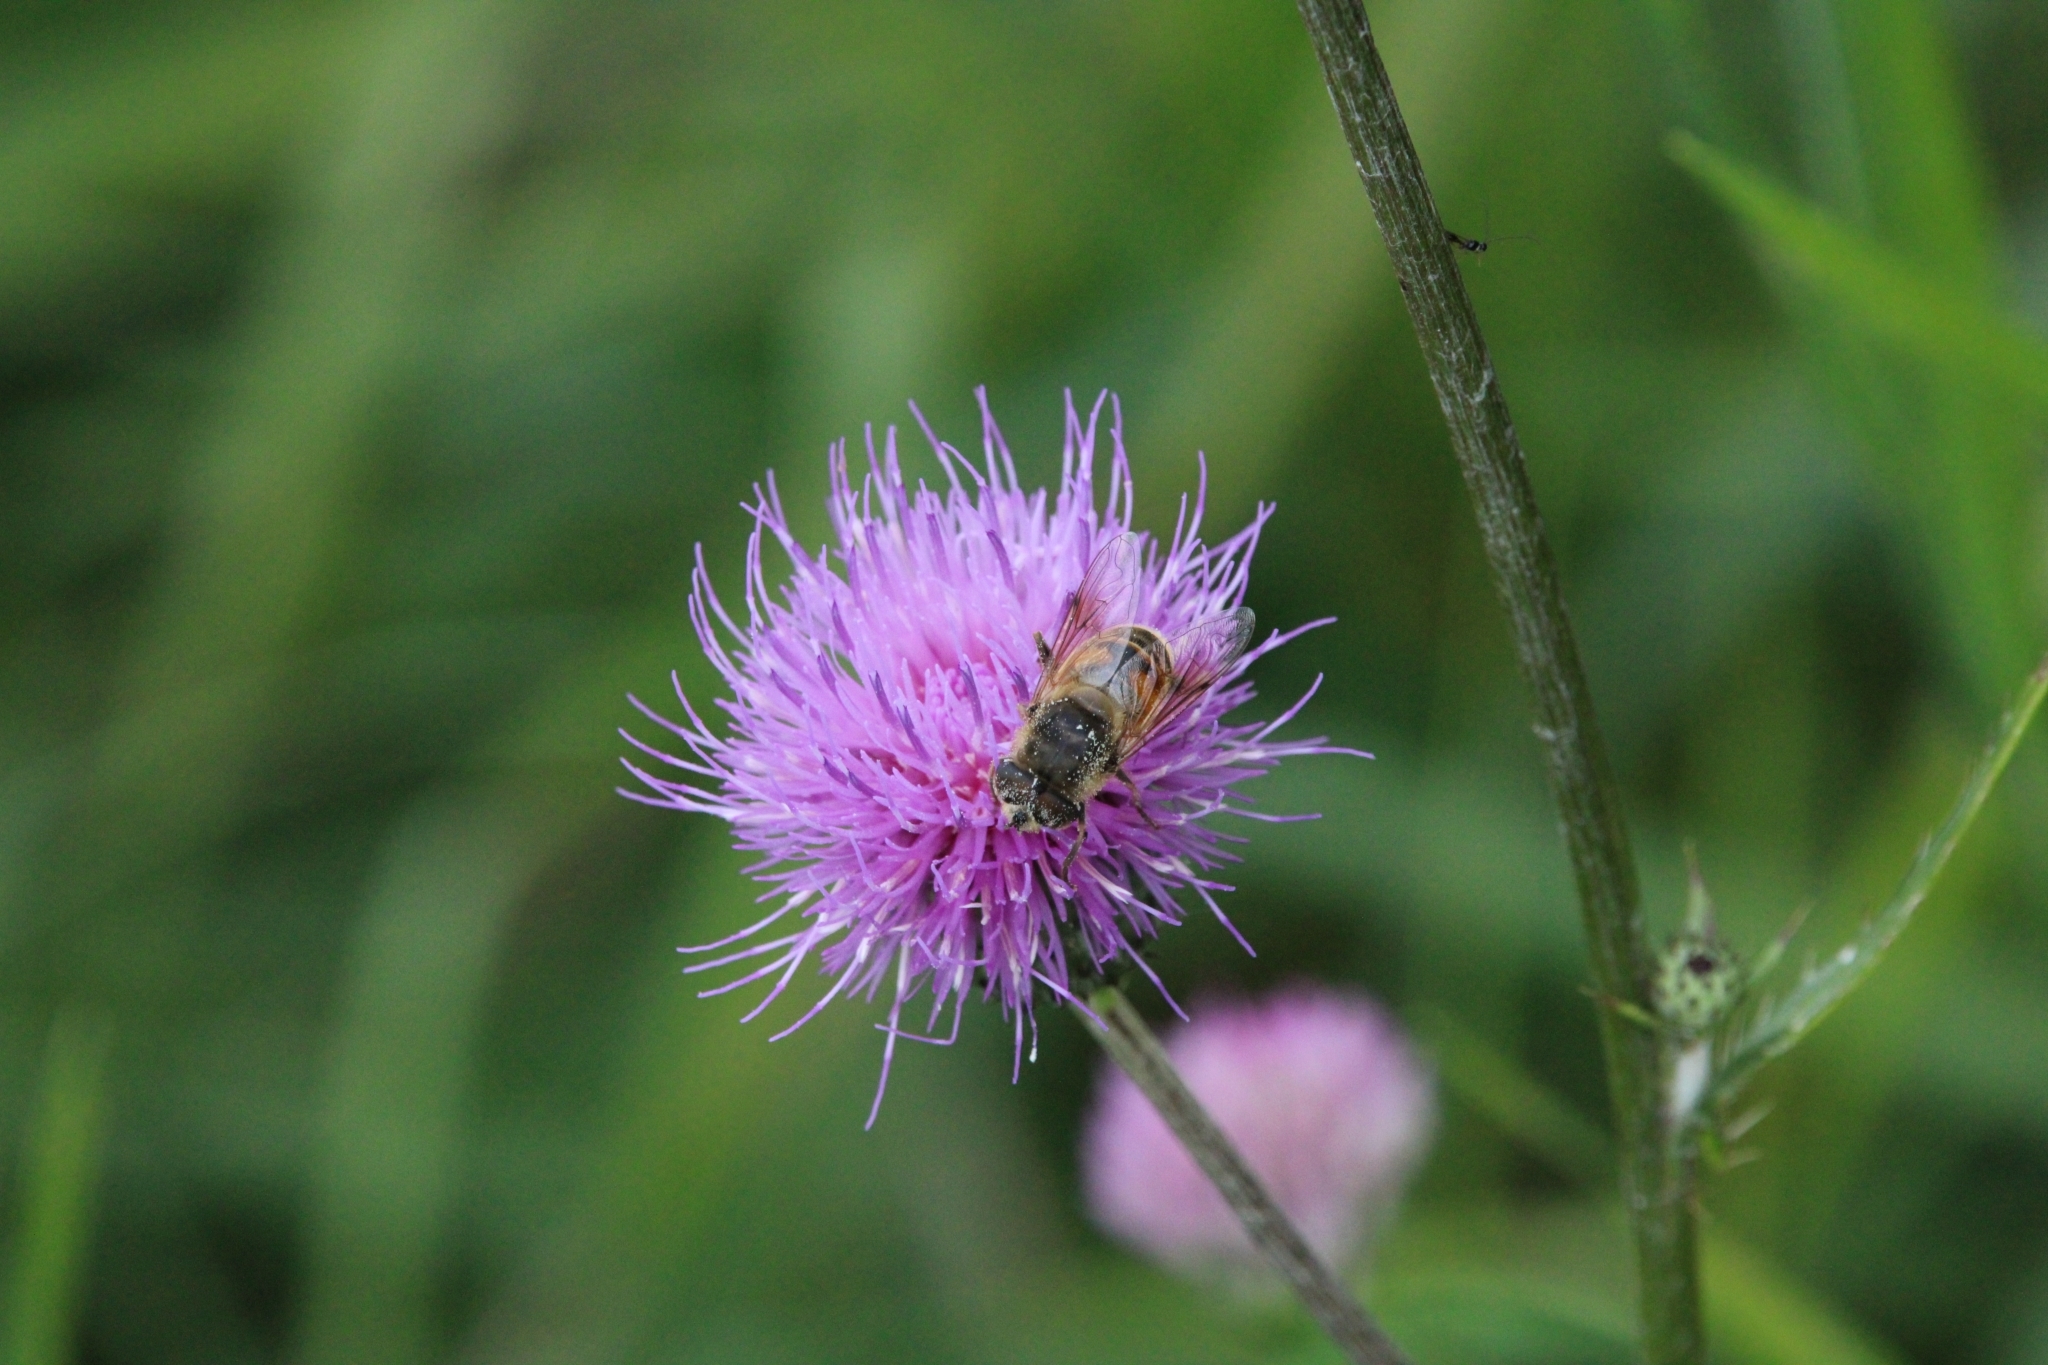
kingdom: Animalia
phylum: Arthropoda
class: Insecta
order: Diptera
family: Syrphidae
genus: Eristalis
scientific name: Eristalis tenax
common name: Drone fly
